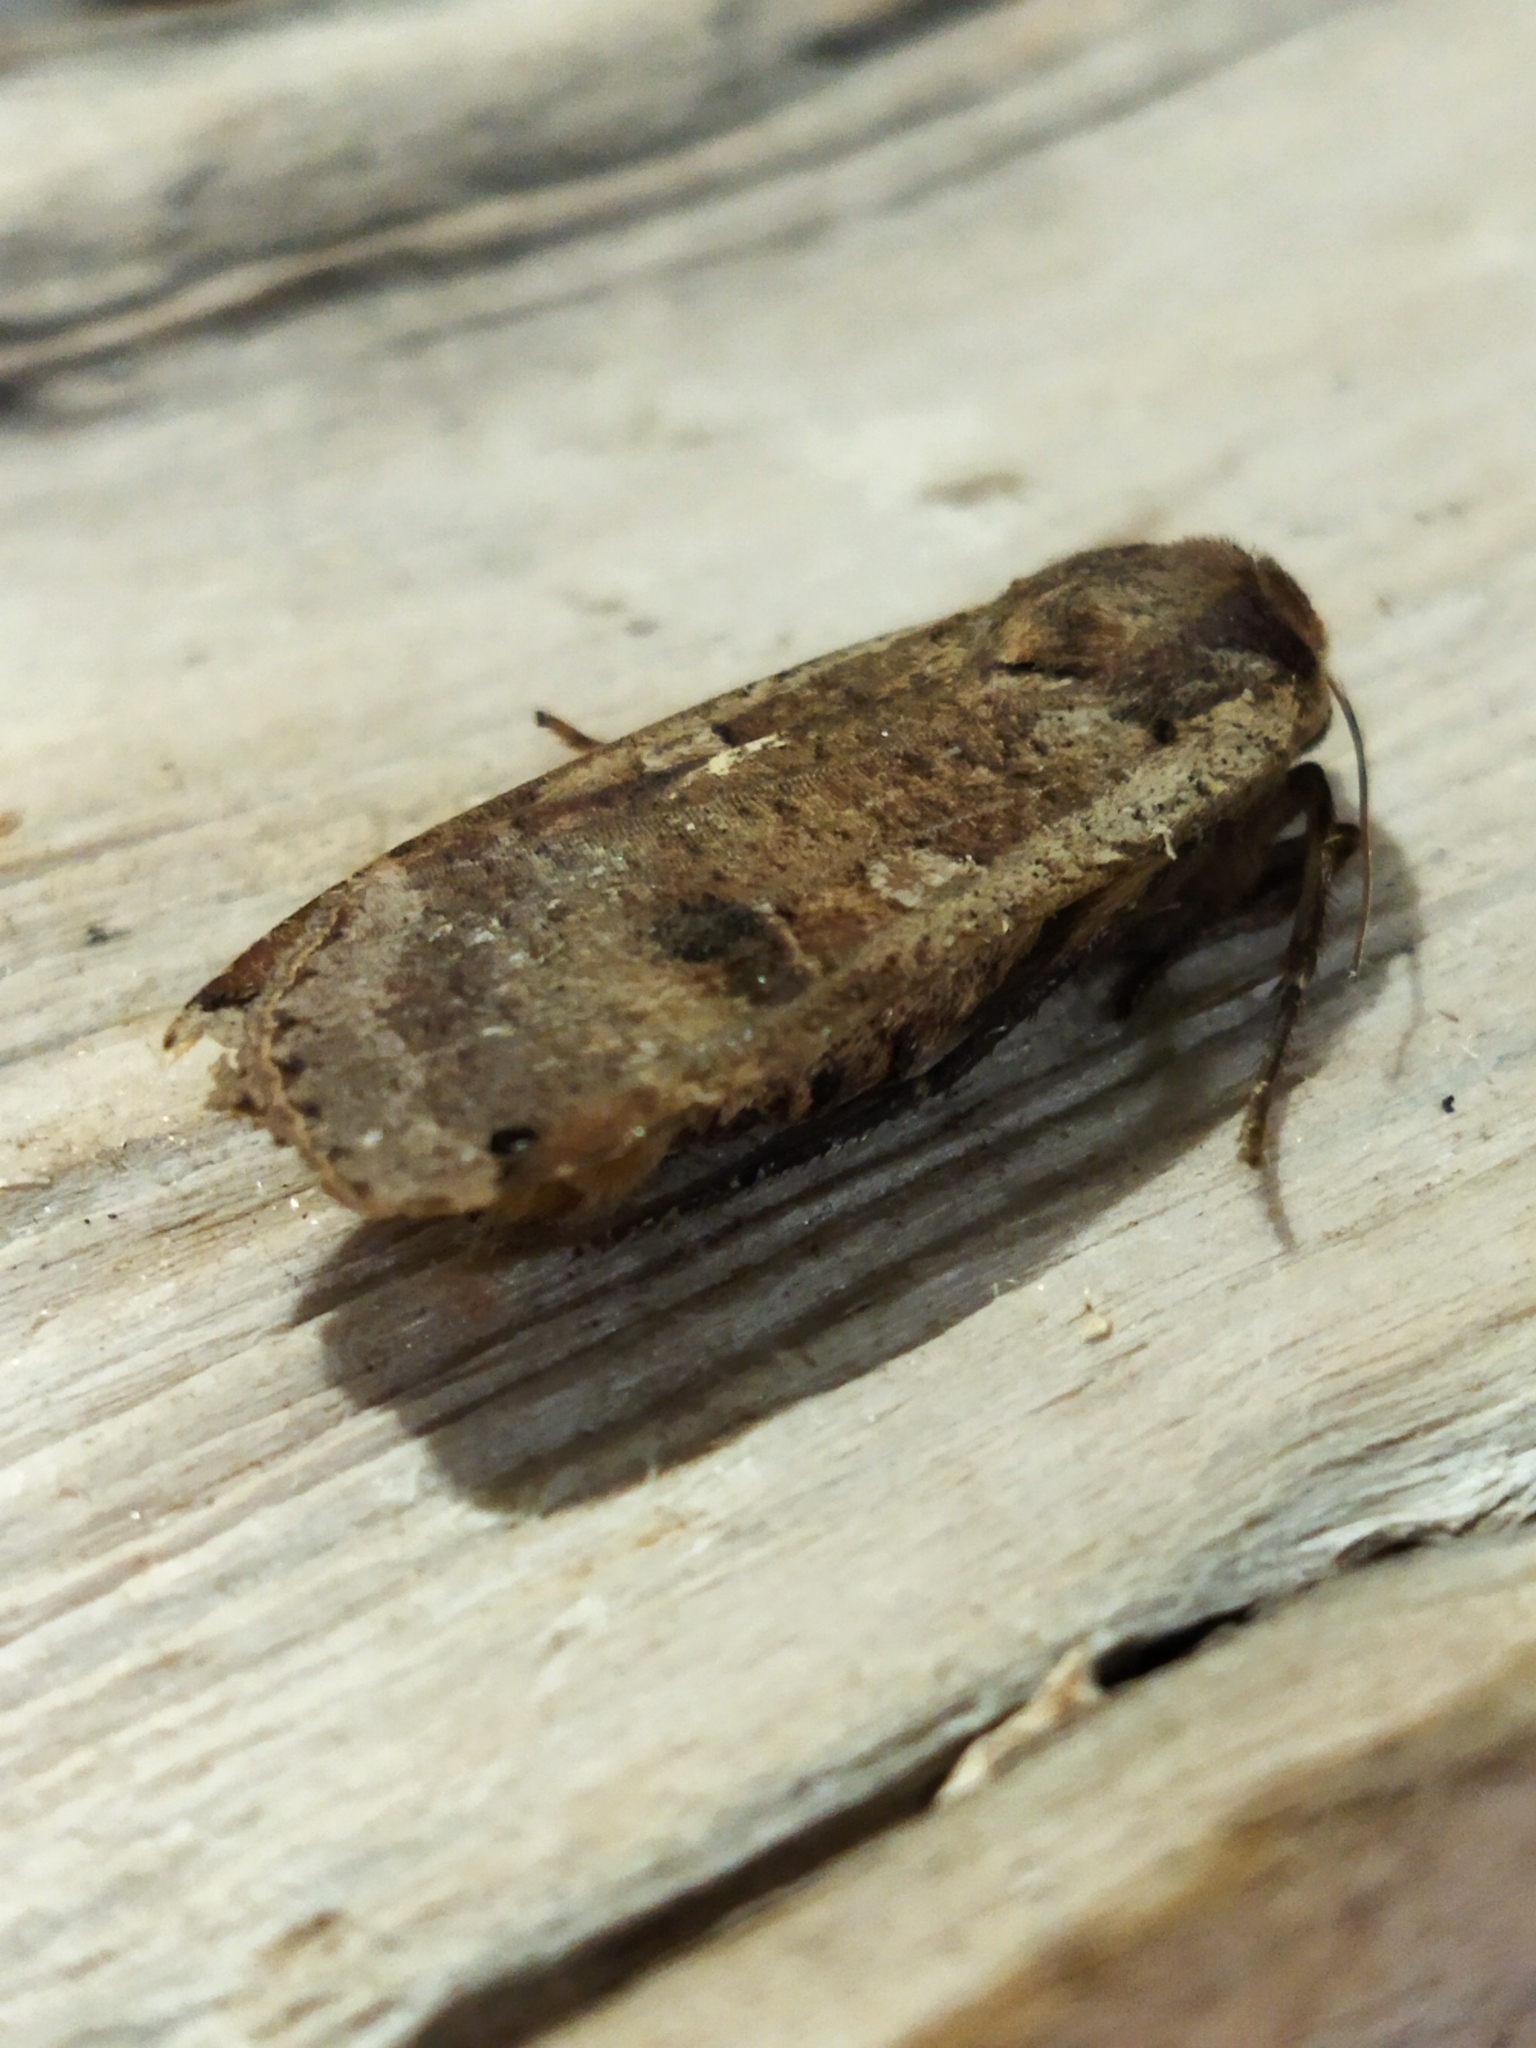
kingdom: Animalia
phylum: Arthropoda
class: Insecta
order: Lepidoptera
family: Noctuidae
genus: Noctua
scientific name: Noctua pronuba
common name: Large yellow underwing
